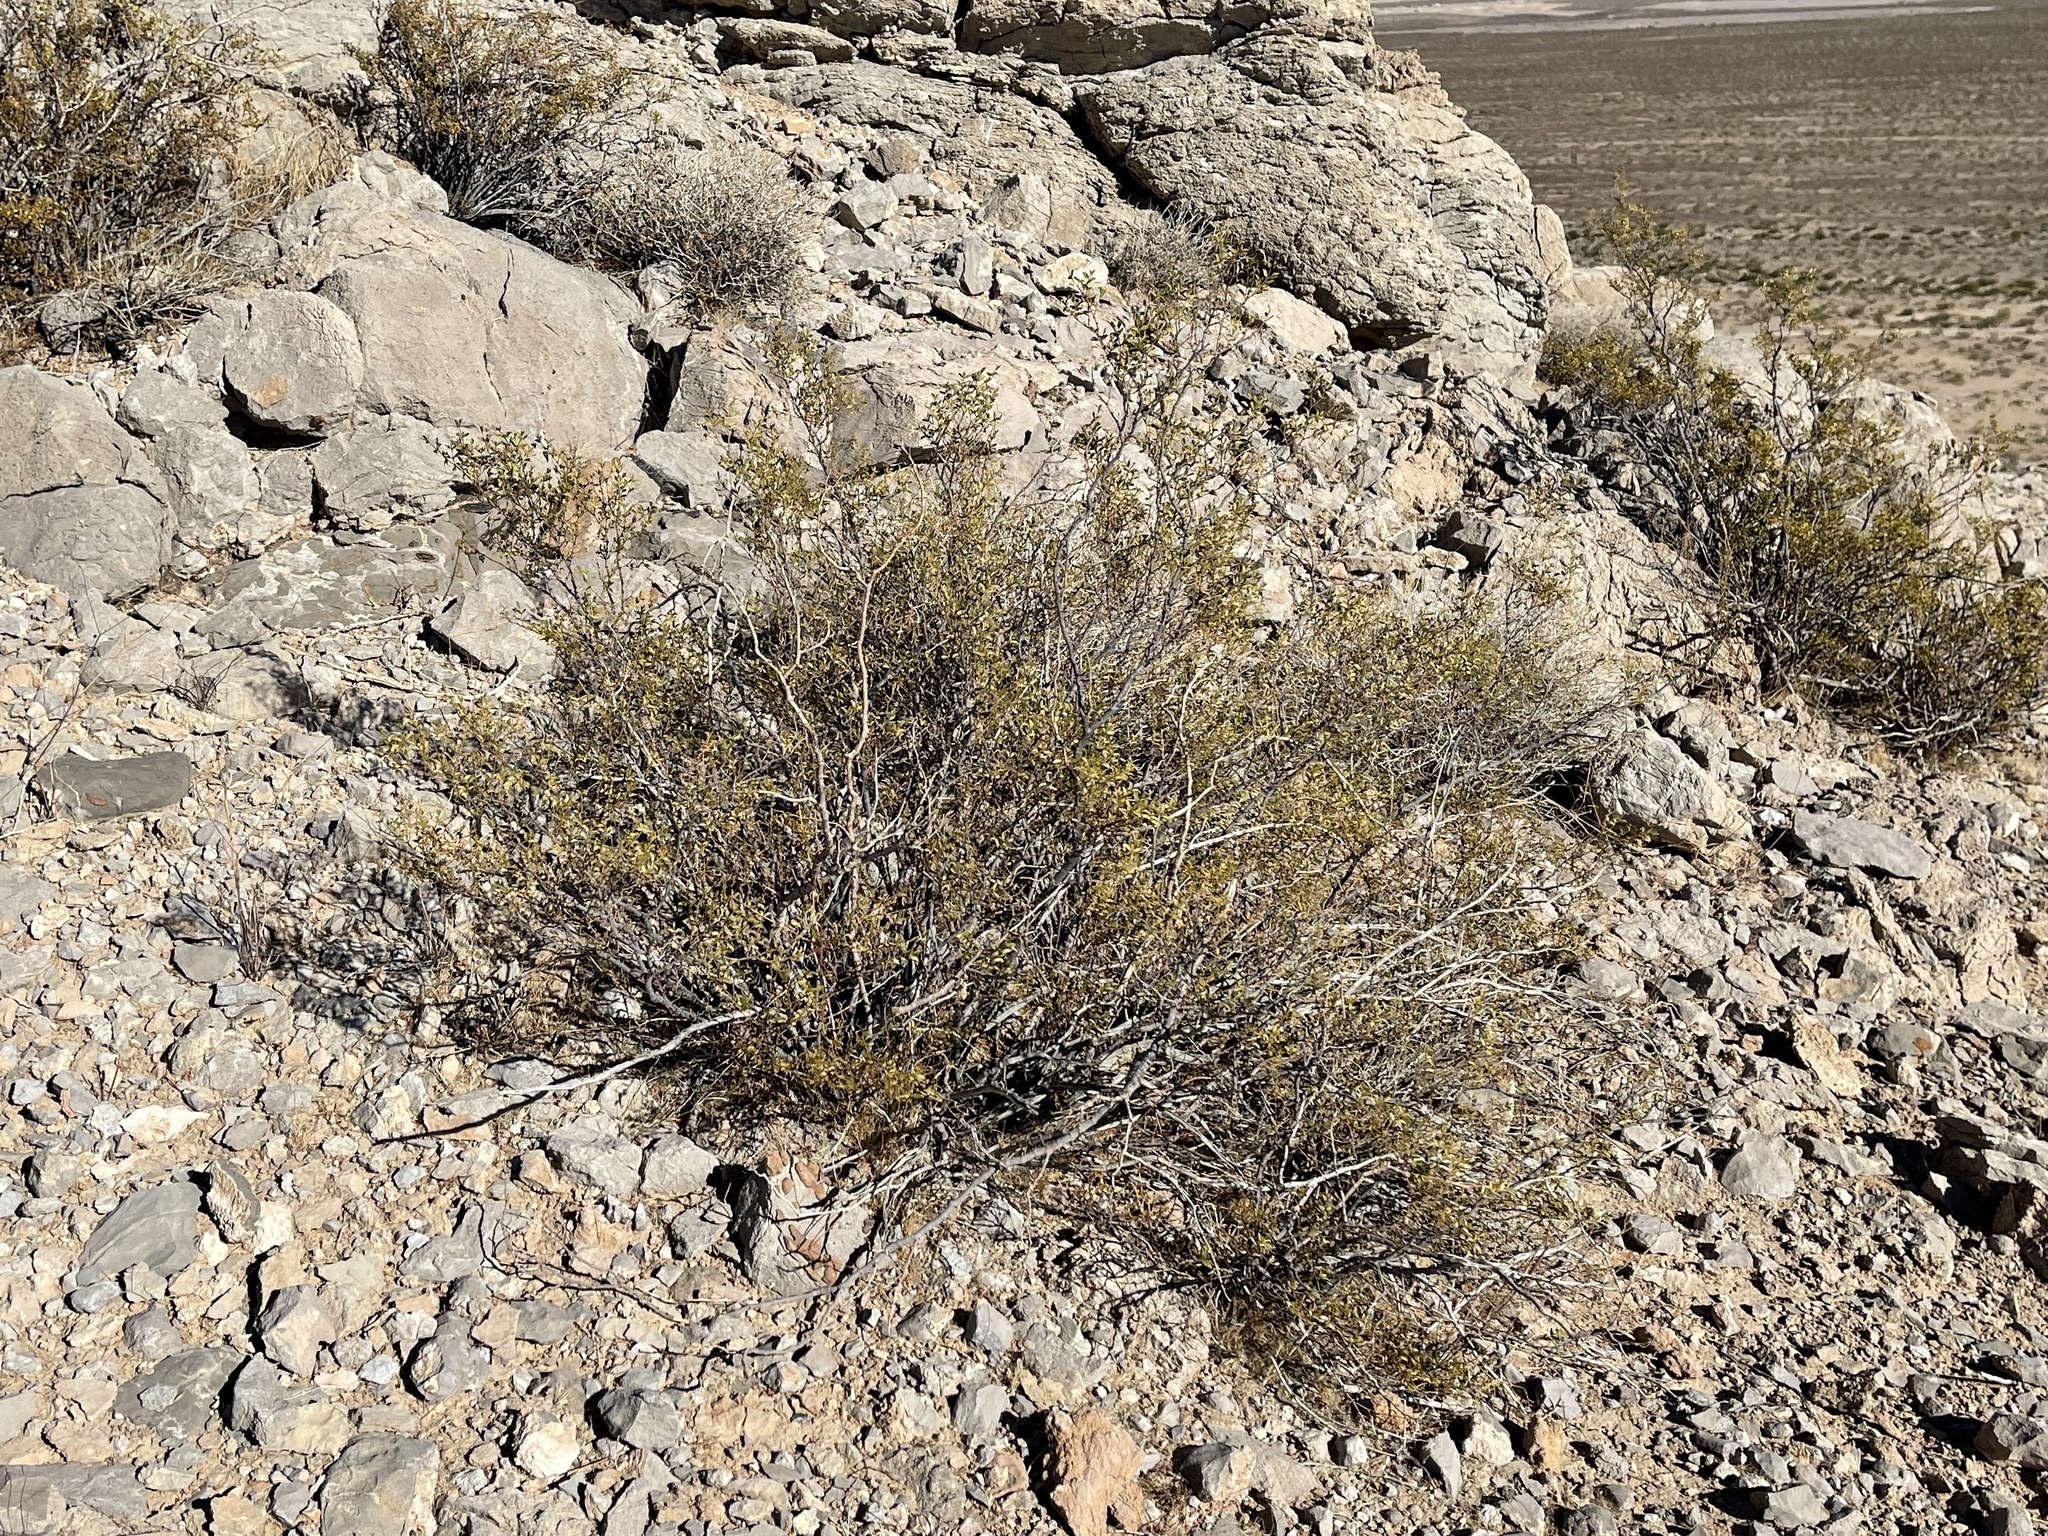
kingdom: Plantae
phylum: Tracheophyta
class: Magnoliopsida
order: Zygophyllales
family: Zygophyllaceae
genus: Larrea
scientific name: Larrea tridentata
